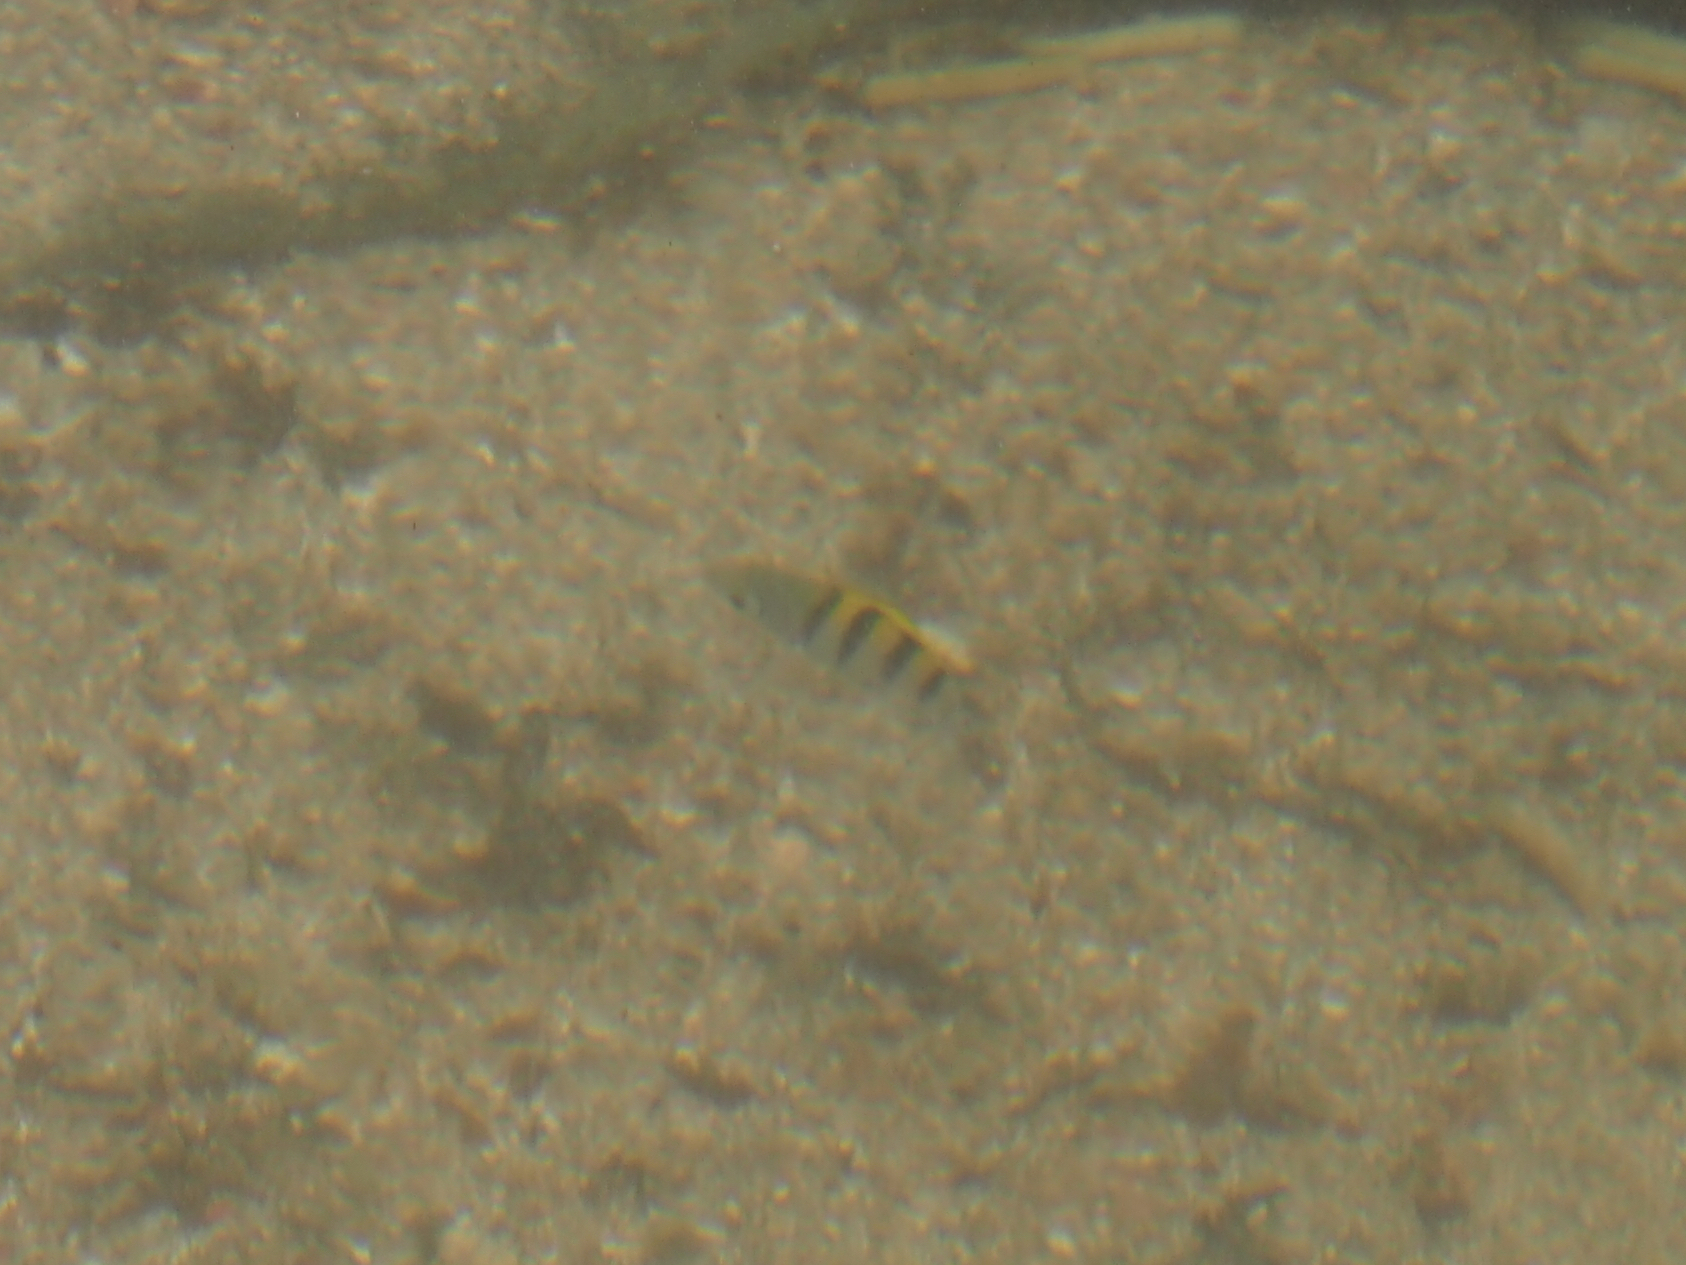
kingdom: Animalia
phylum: Chordata
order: Perciformes
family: Pomacentridae
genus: Abudefduf
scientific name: Abudefduf saxatilis
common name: Sergeant major
